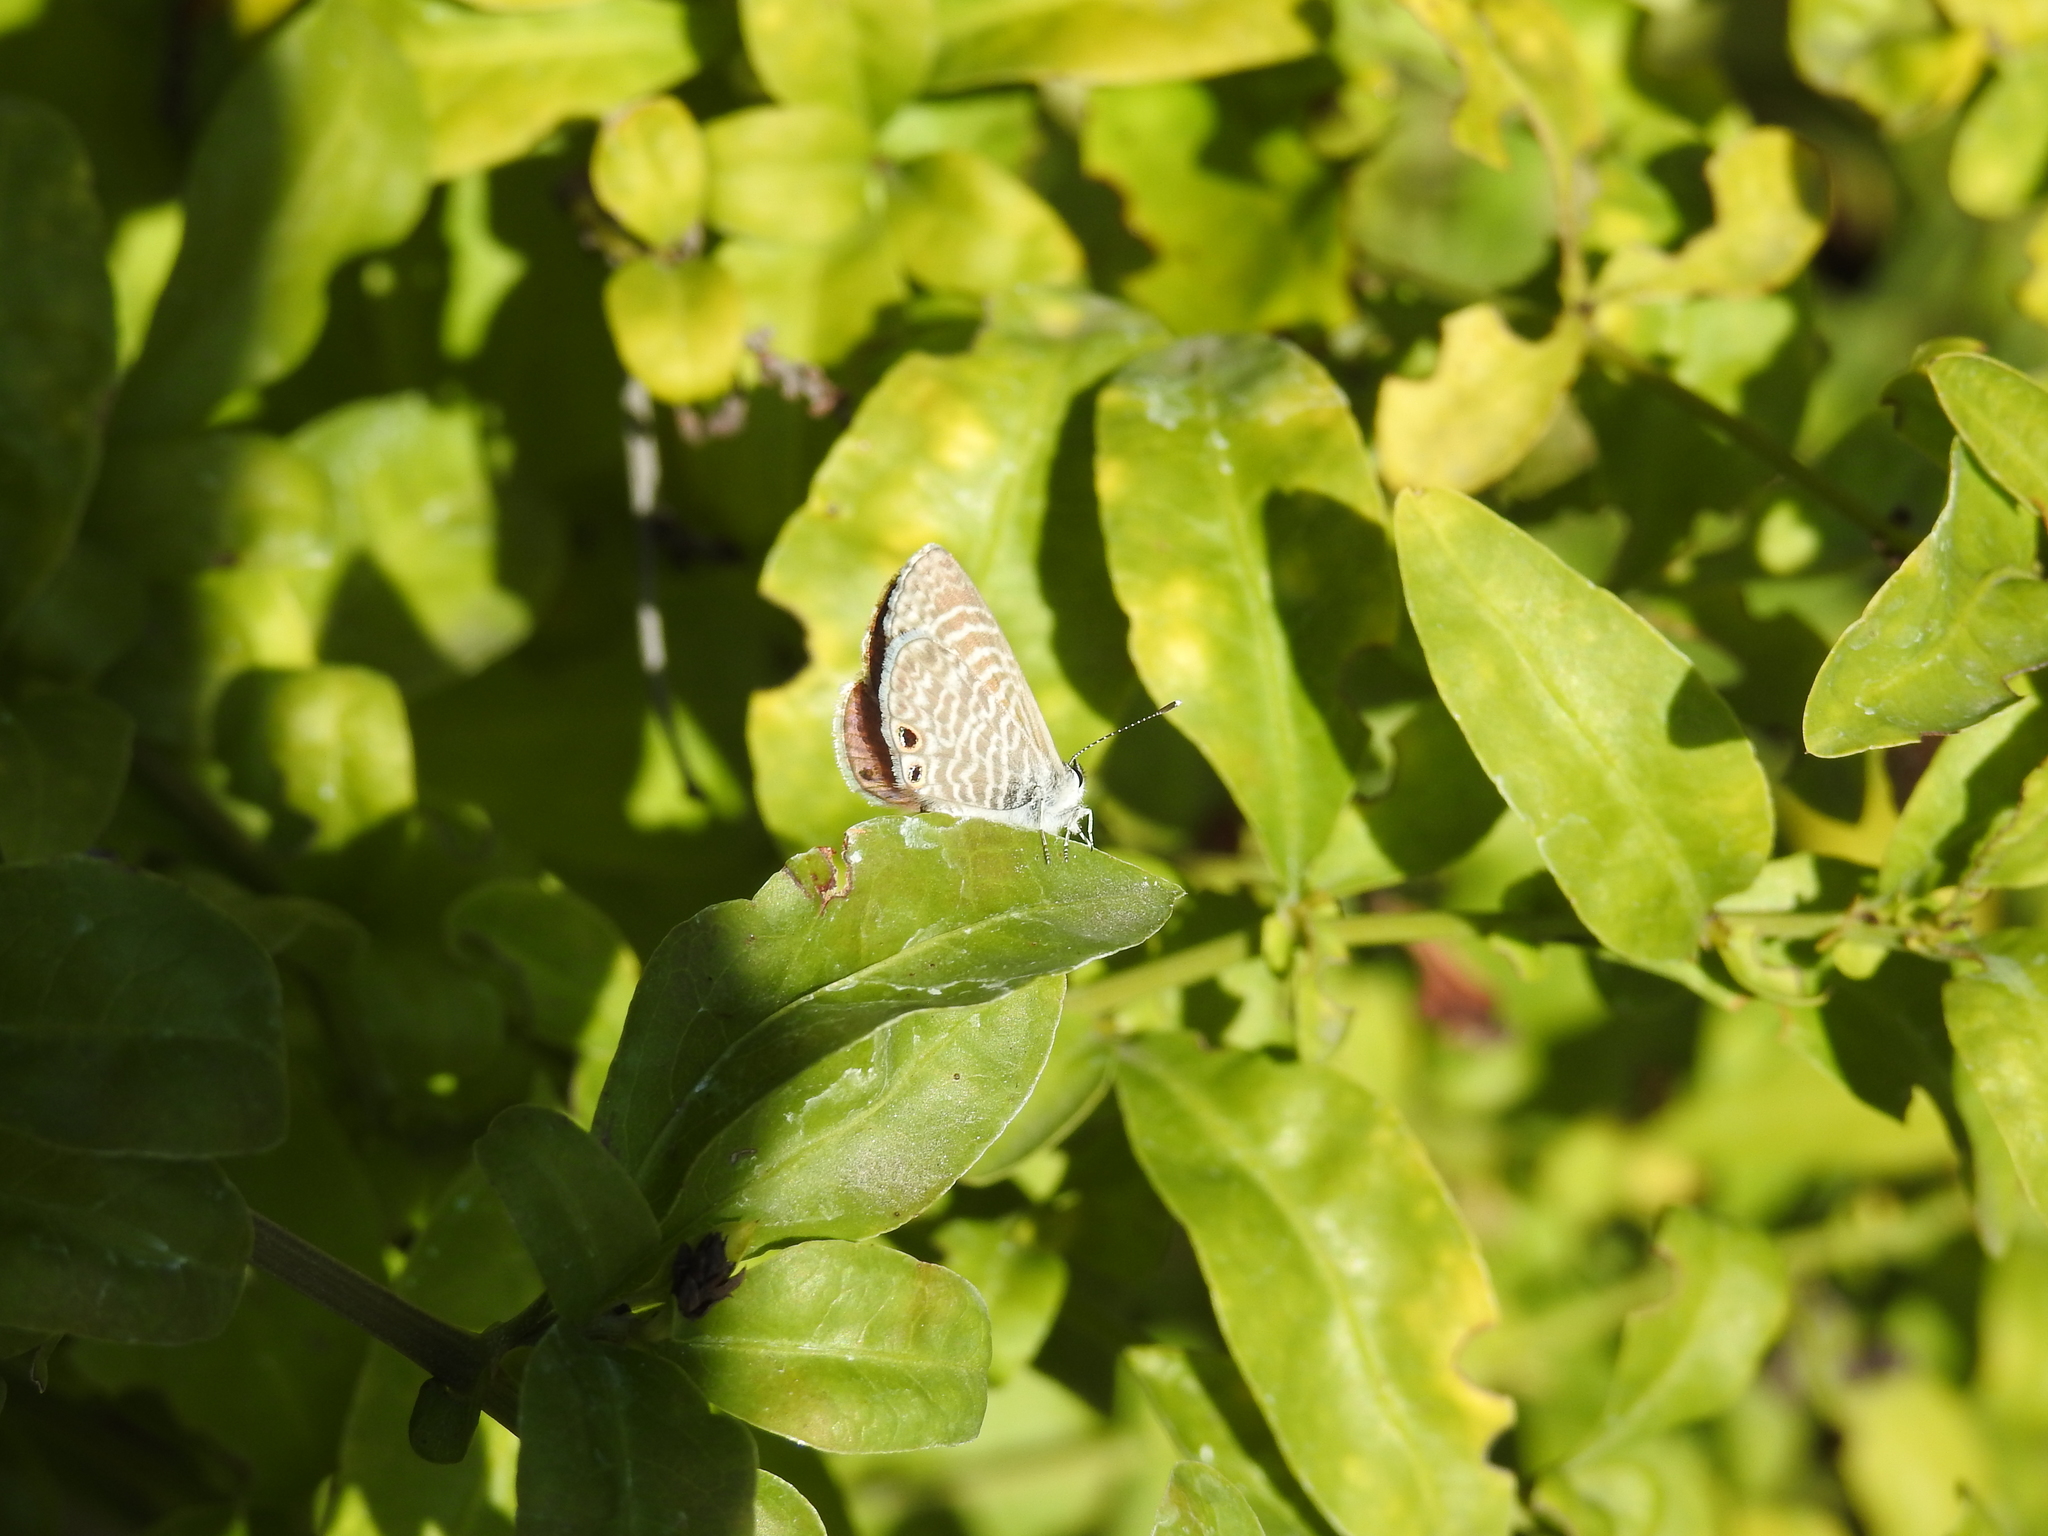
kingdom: Animalia
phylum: Arthropoda
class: Insecta
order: Lepidoptera
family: Lycaenidae
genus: Leptotes
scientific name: Leptotes marina
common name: Marine blue
